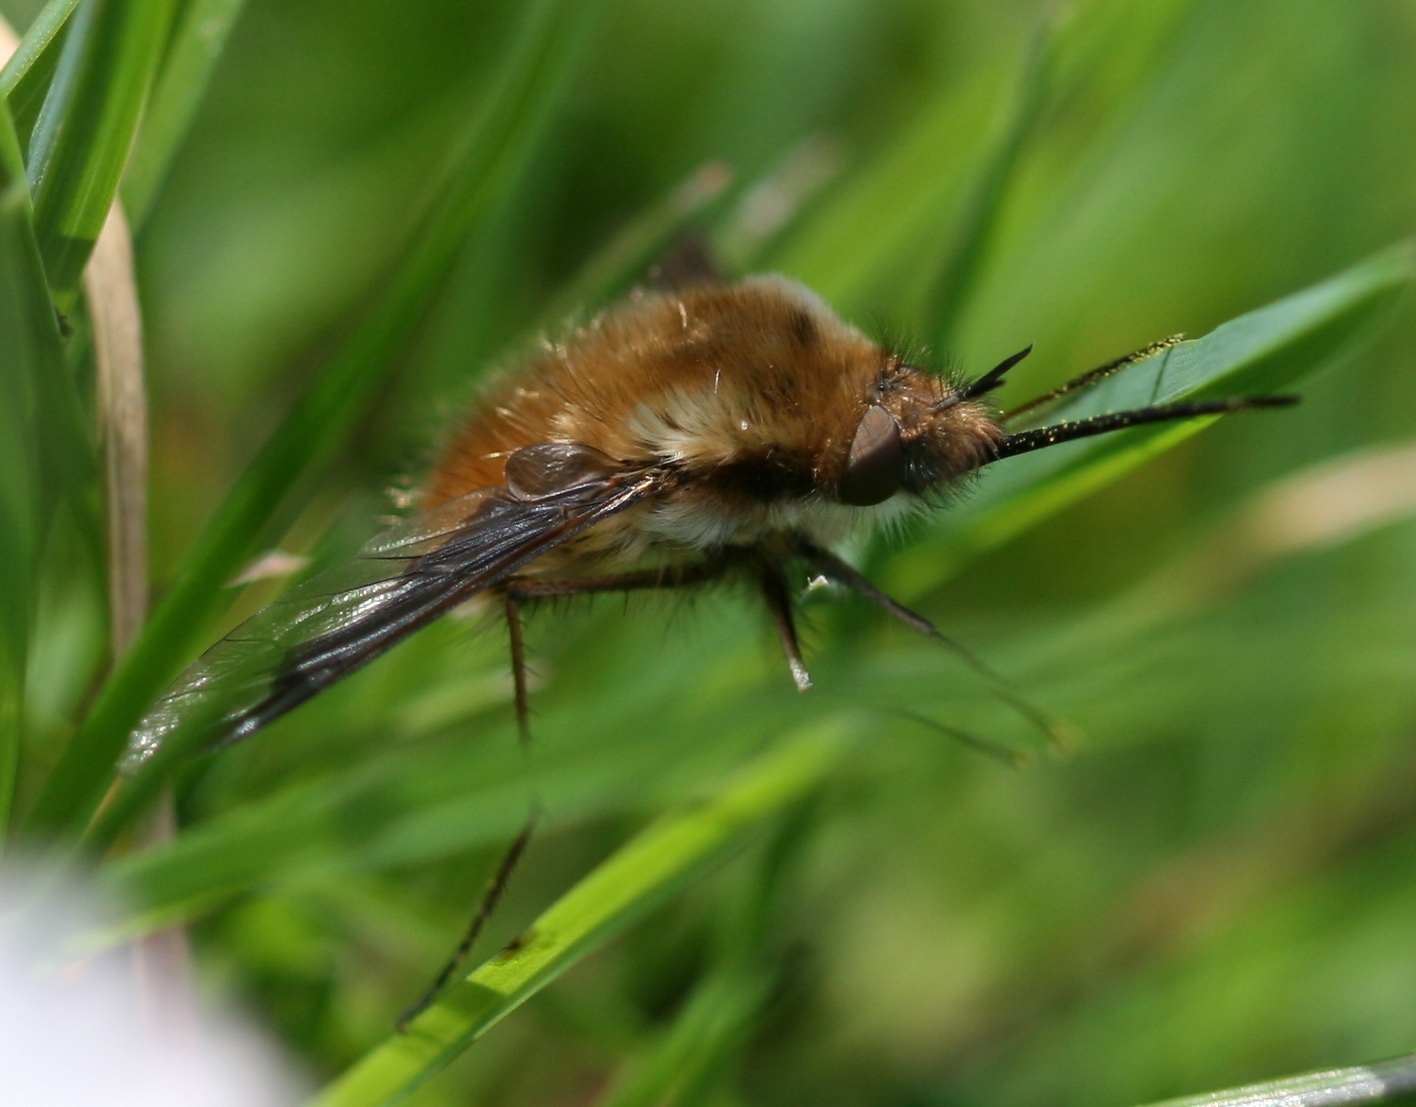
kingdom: Animalia
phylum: Arthropoda
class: Insecta
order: Diptera
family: Bombyliidae
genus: Bombylius
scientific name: Bombylius major
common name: Bee fly
